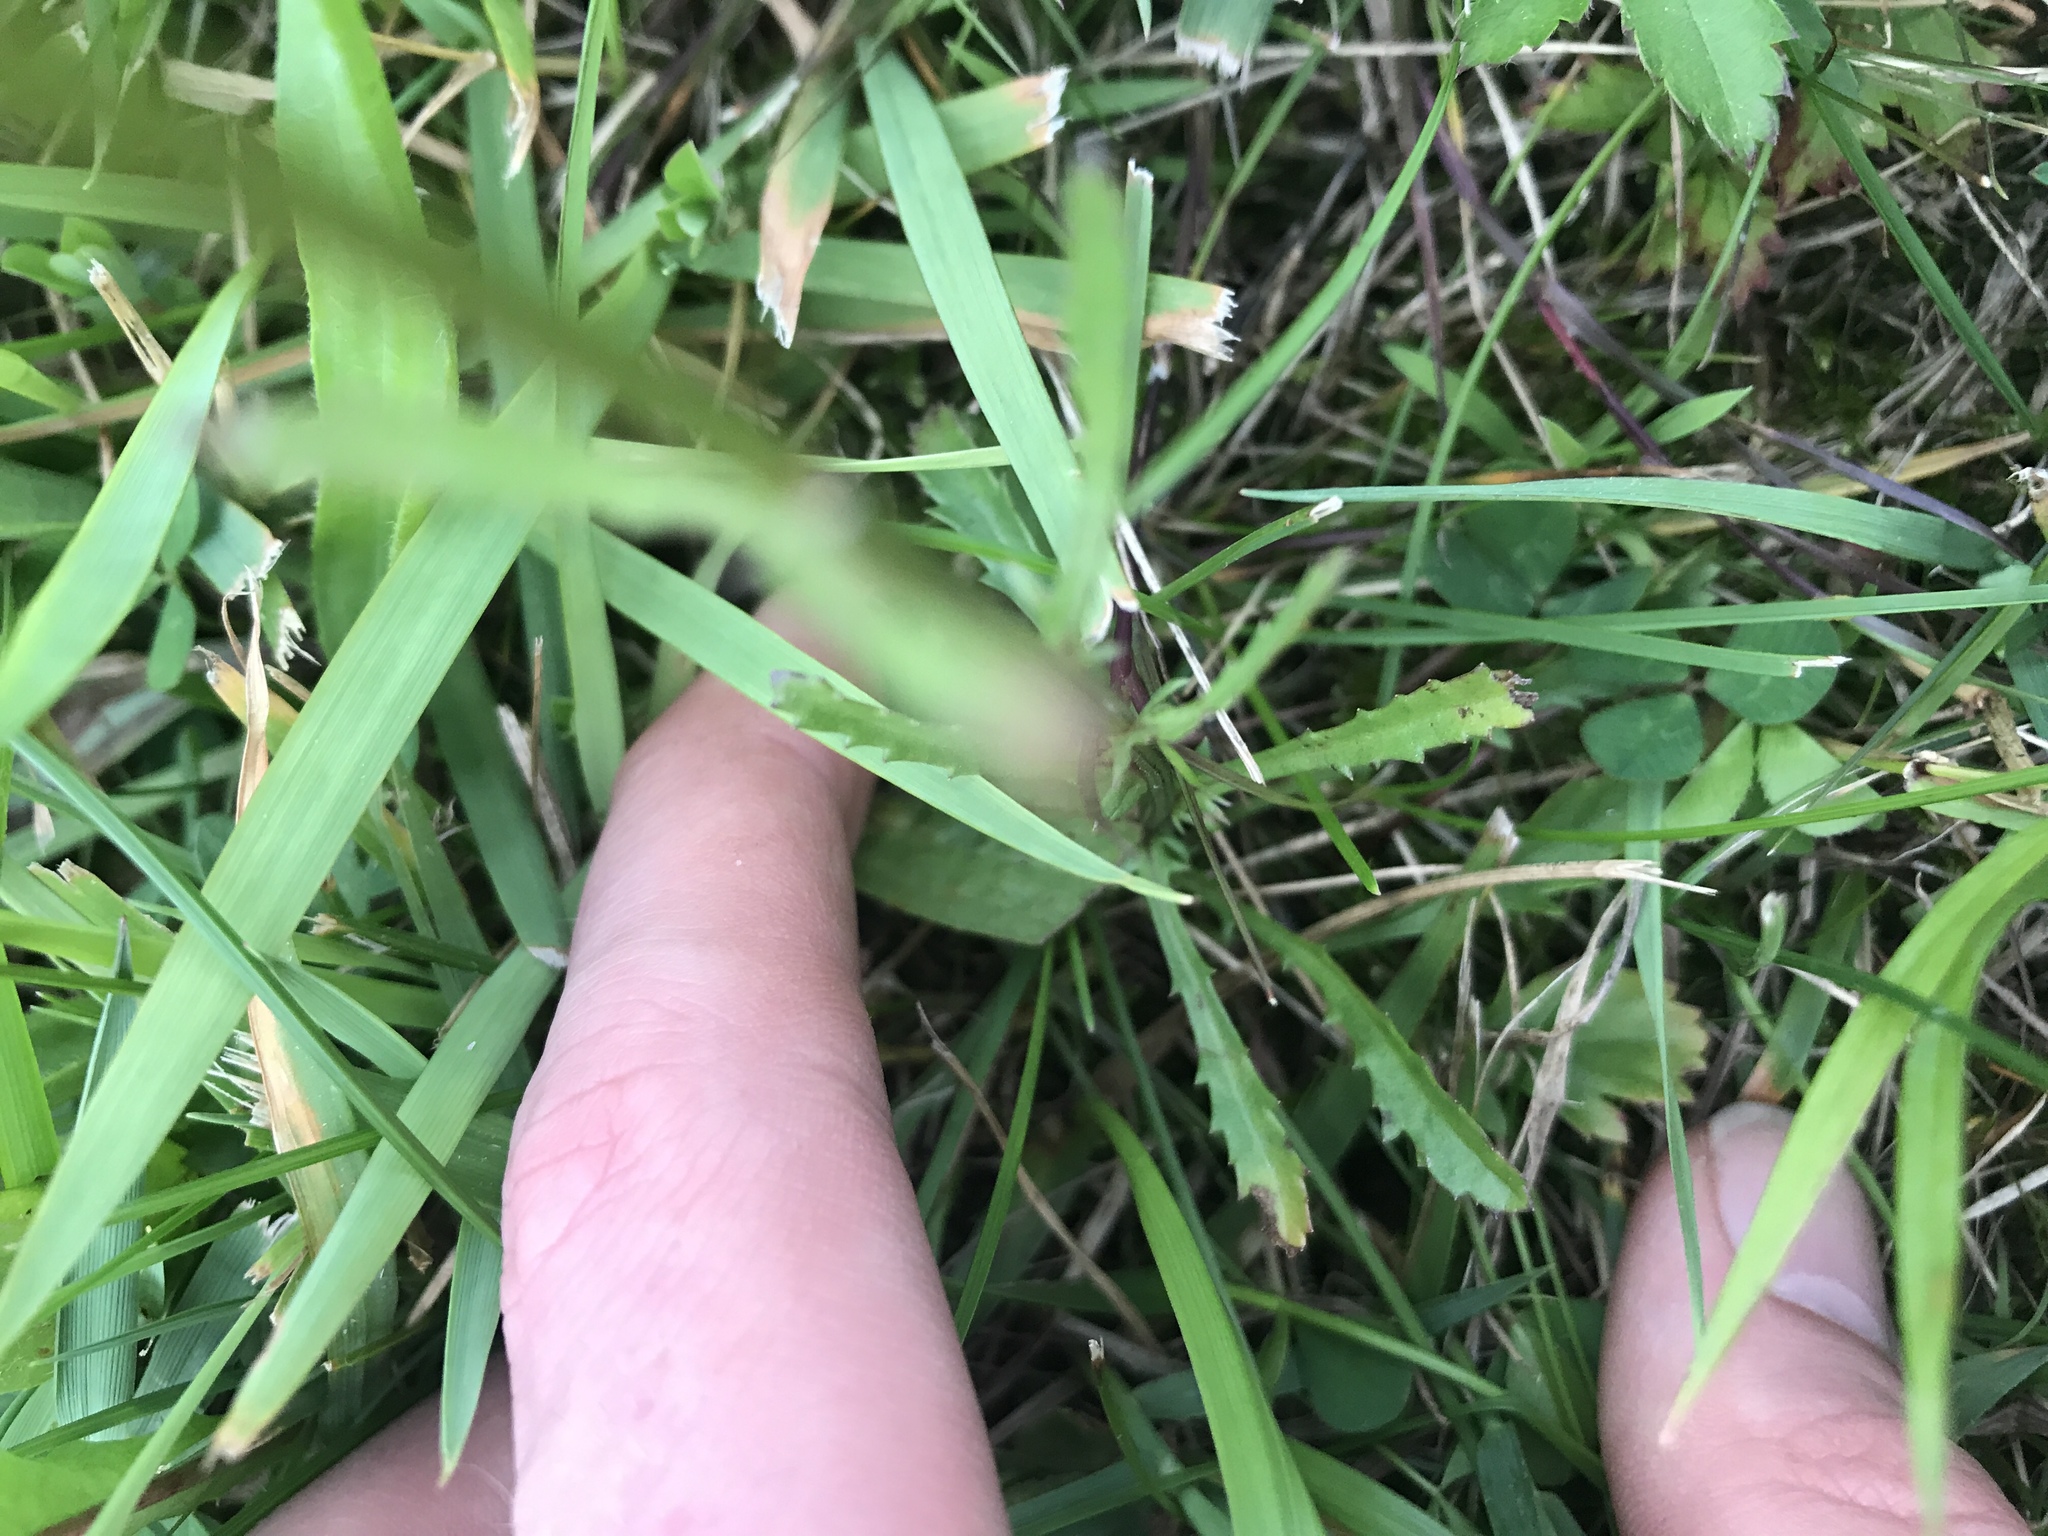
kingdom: Plantae
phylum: Tracheophyta
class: Magnoliopsida
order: Asterales
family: Asteraceae
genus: Leucanthemum
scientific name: Leucanthemum vulgare
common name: Oxeye daisy
